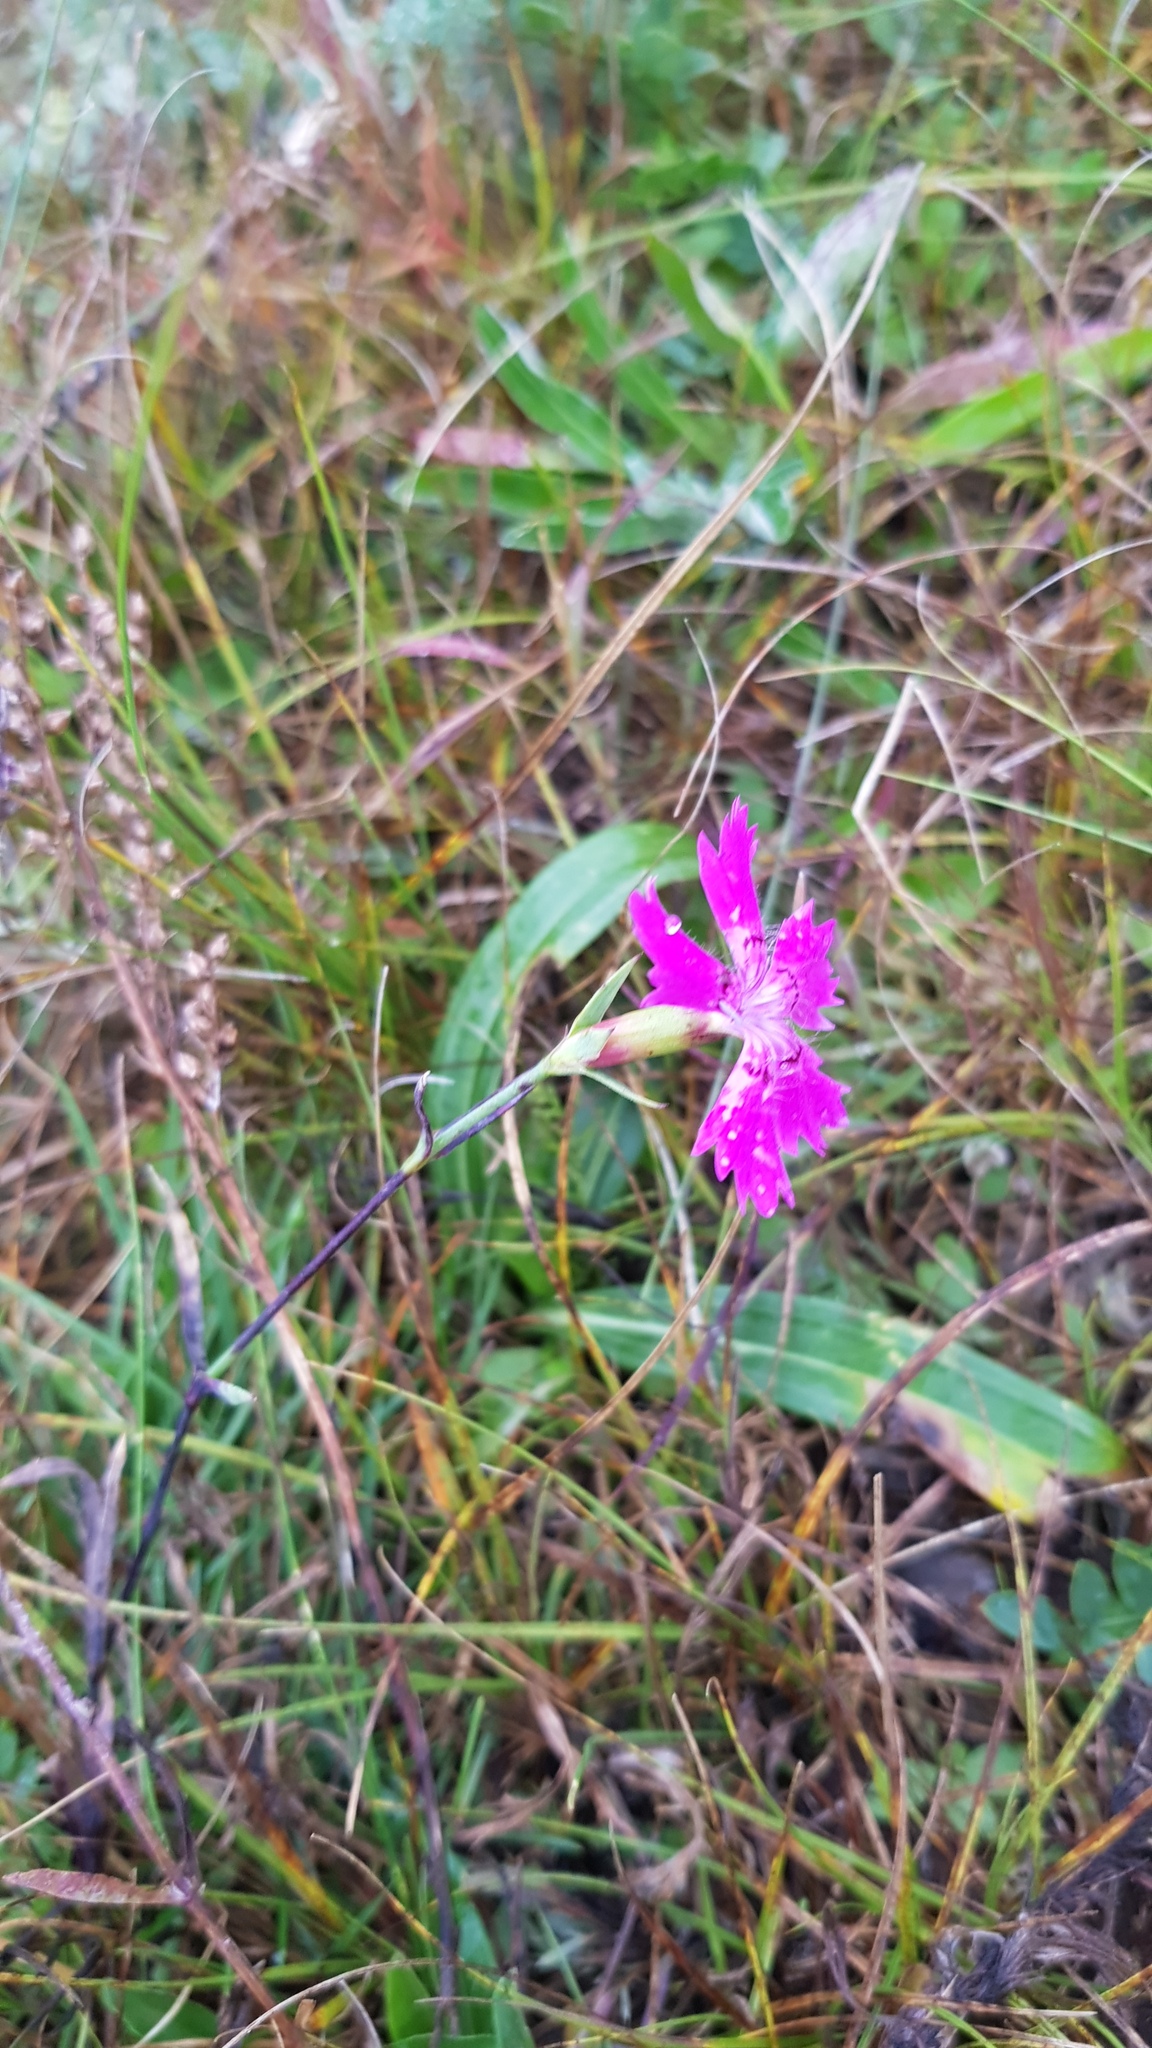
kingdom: Plantae
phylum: Tracheophyta
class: Magnoliopsida
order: Caryophyllales
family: Caryophyllaceae
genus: Dianthus
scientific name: Dianthus chinensis
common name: Rainbow pink
